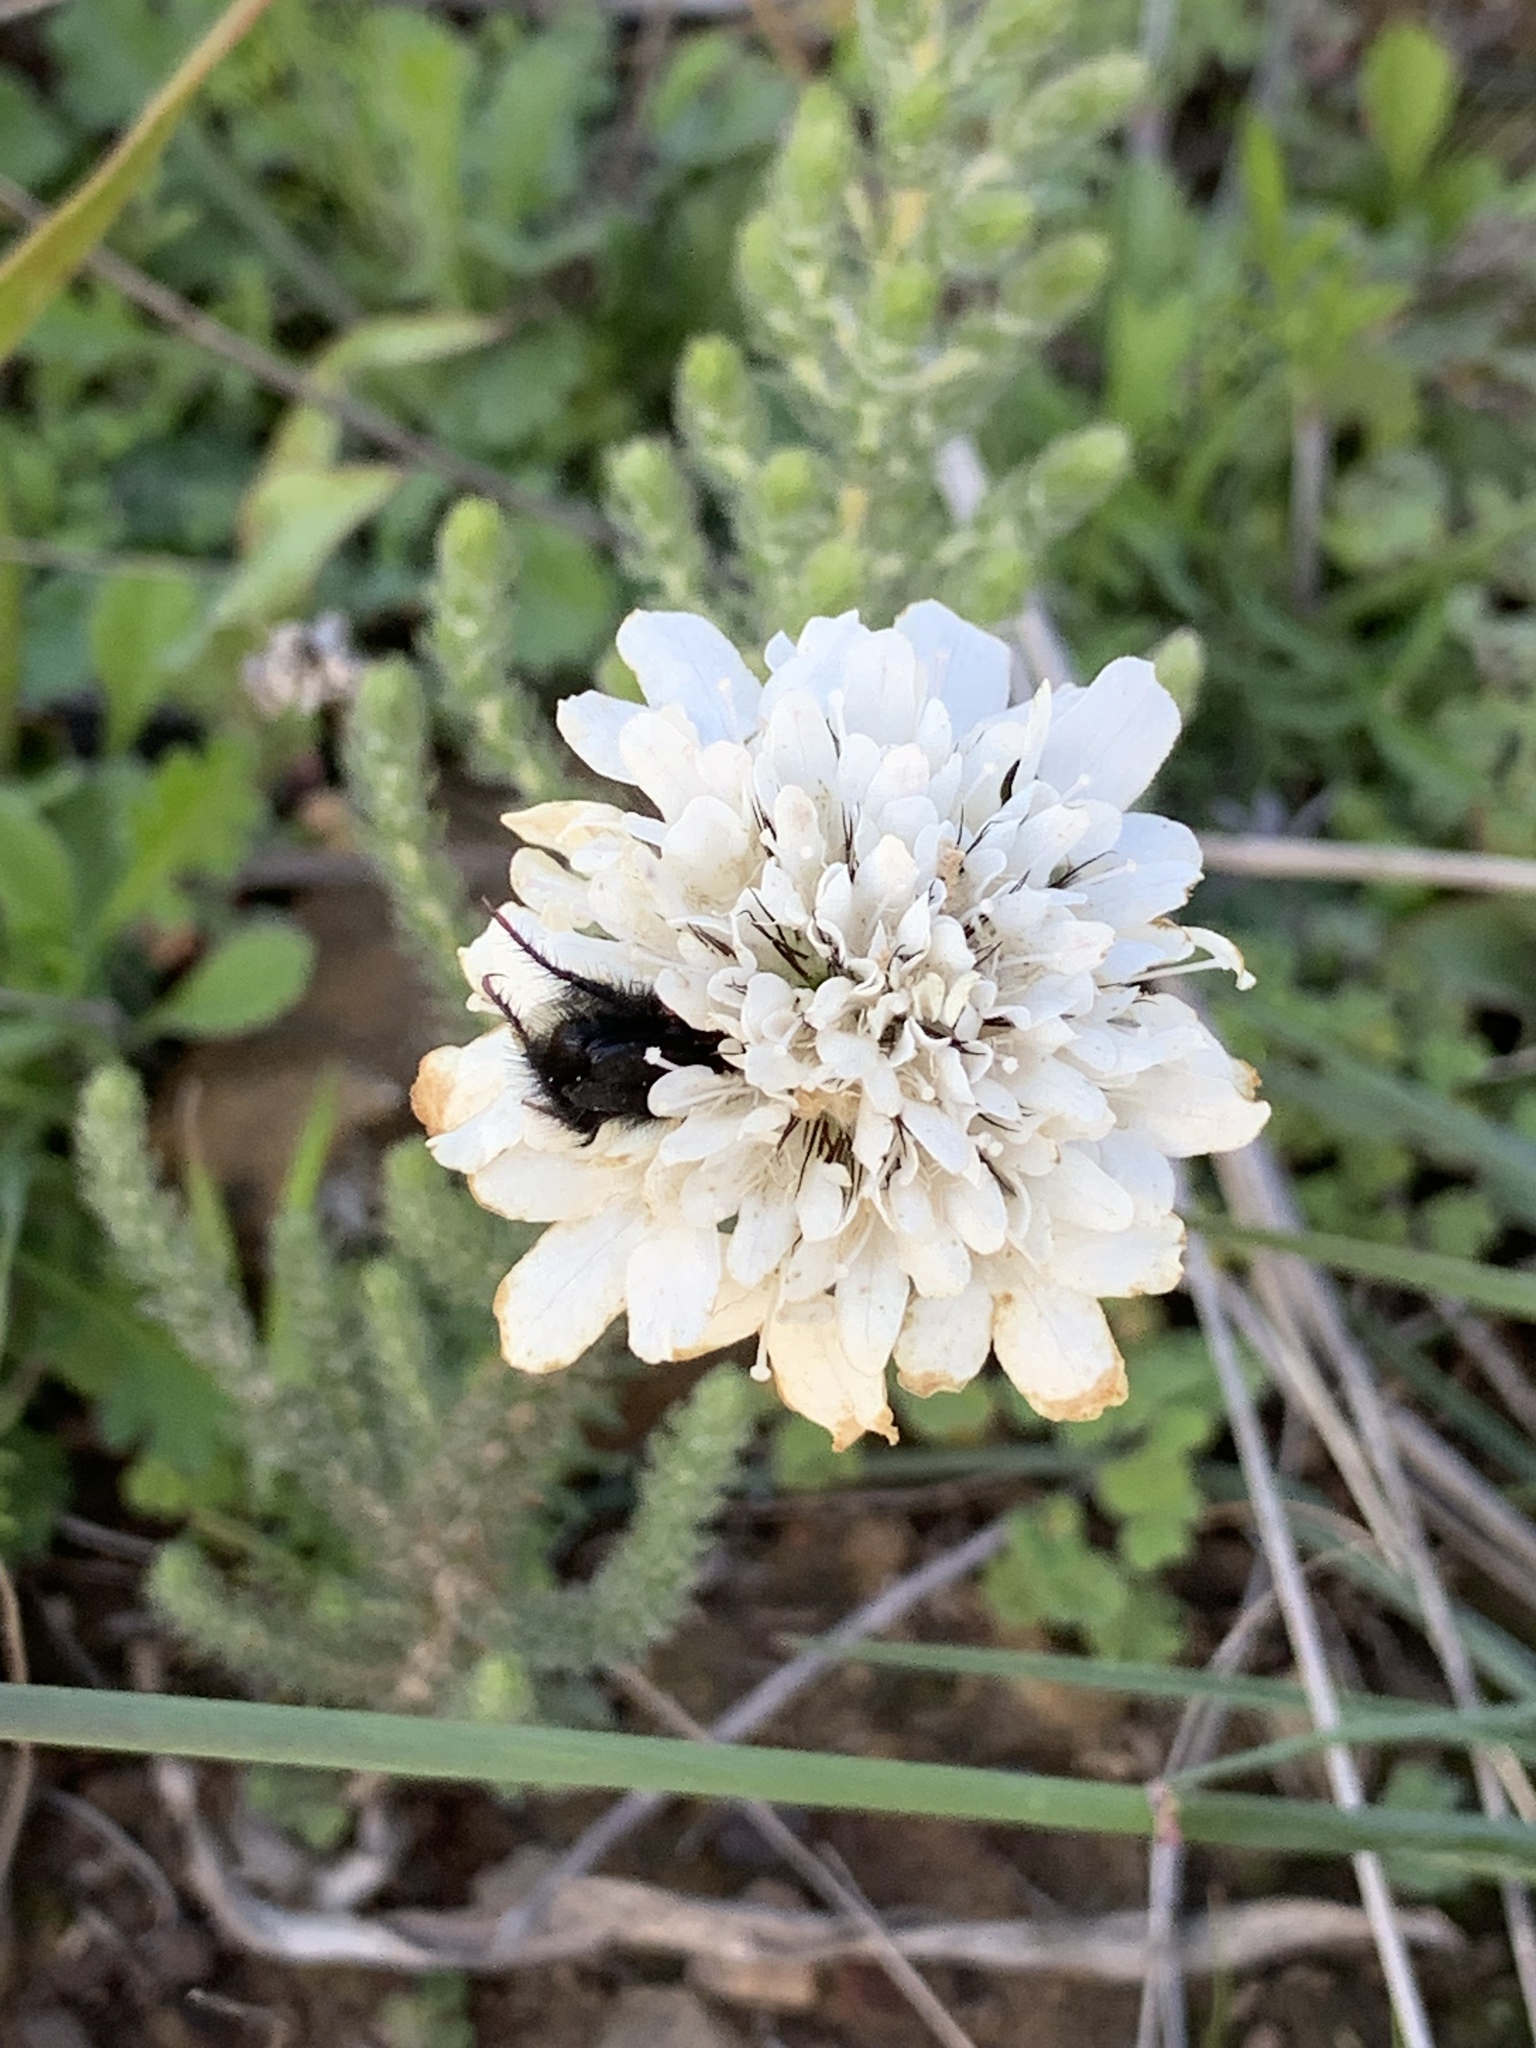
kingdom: Plantae
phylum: Tracheophyta
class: Magnoliopsida
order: Dipsacales
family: Caprifoliaceae
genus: Scabiosa
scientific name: Scabiosa columbaria
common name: Small scabious
